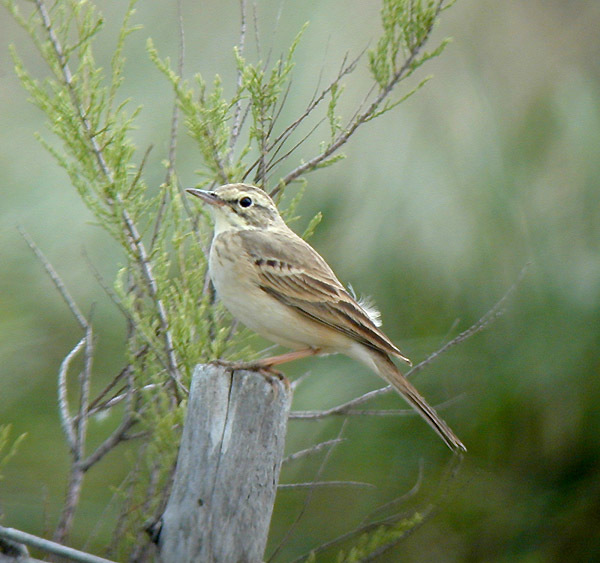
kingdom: Animalia
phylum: Chordata
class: Aves
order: Passeriformes
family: Motacillidae
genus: Anthus
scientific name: Anthus campestris
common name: Tawny pipit
